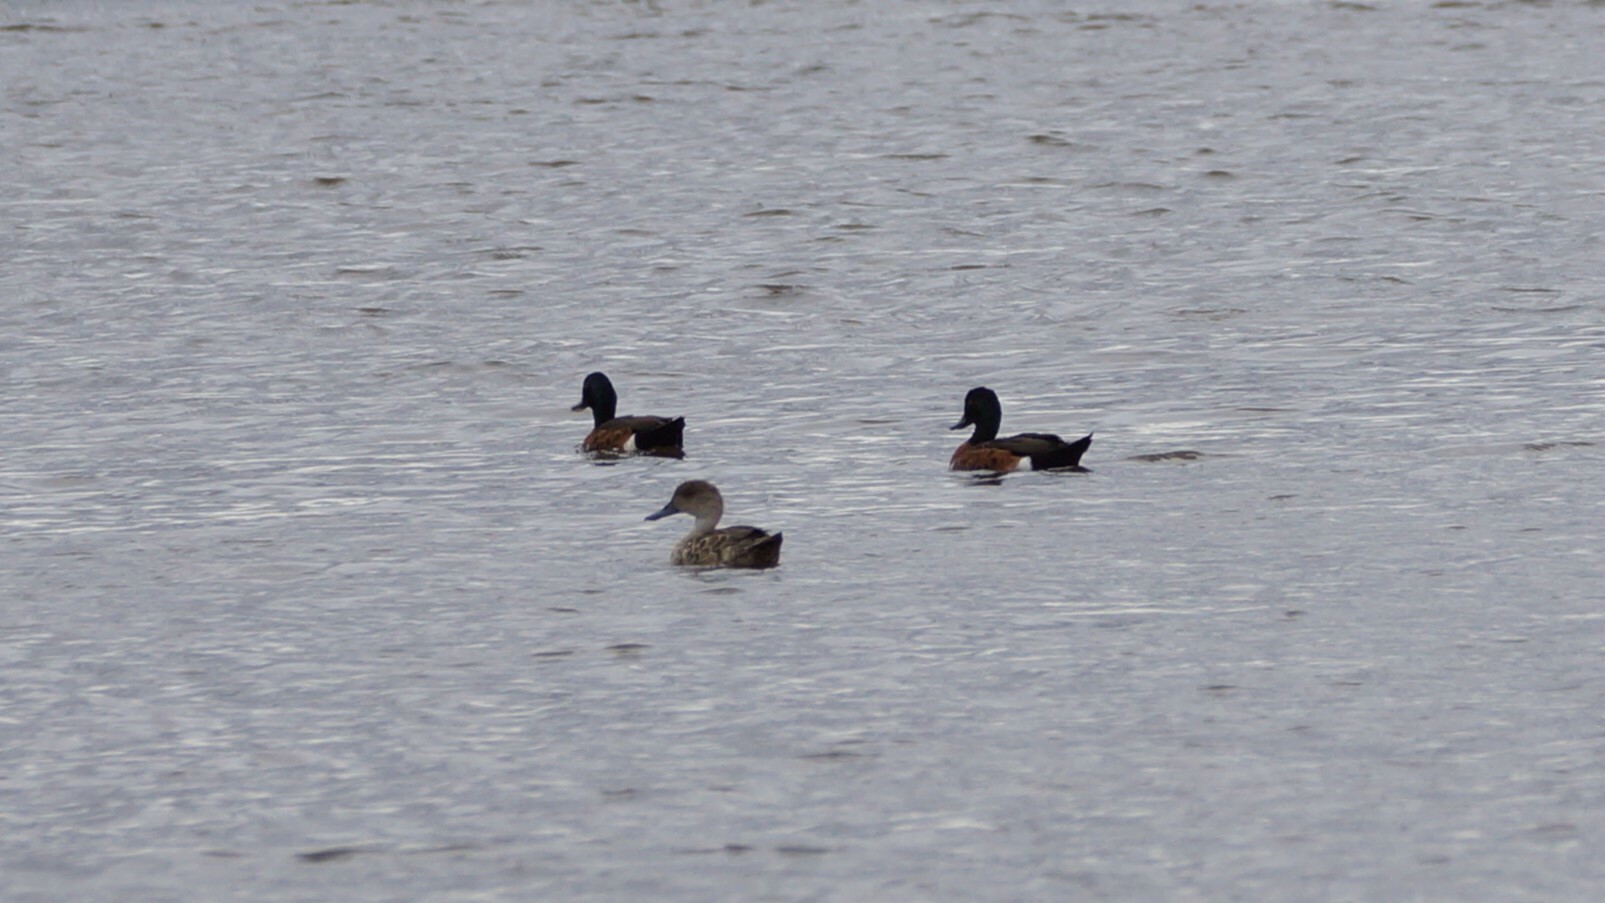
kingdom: Animalia
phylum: Chordata
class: Aves
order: Anseriformes
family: Anatidae
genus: Anas
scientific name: Anas castanea
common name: Chestnut teal
